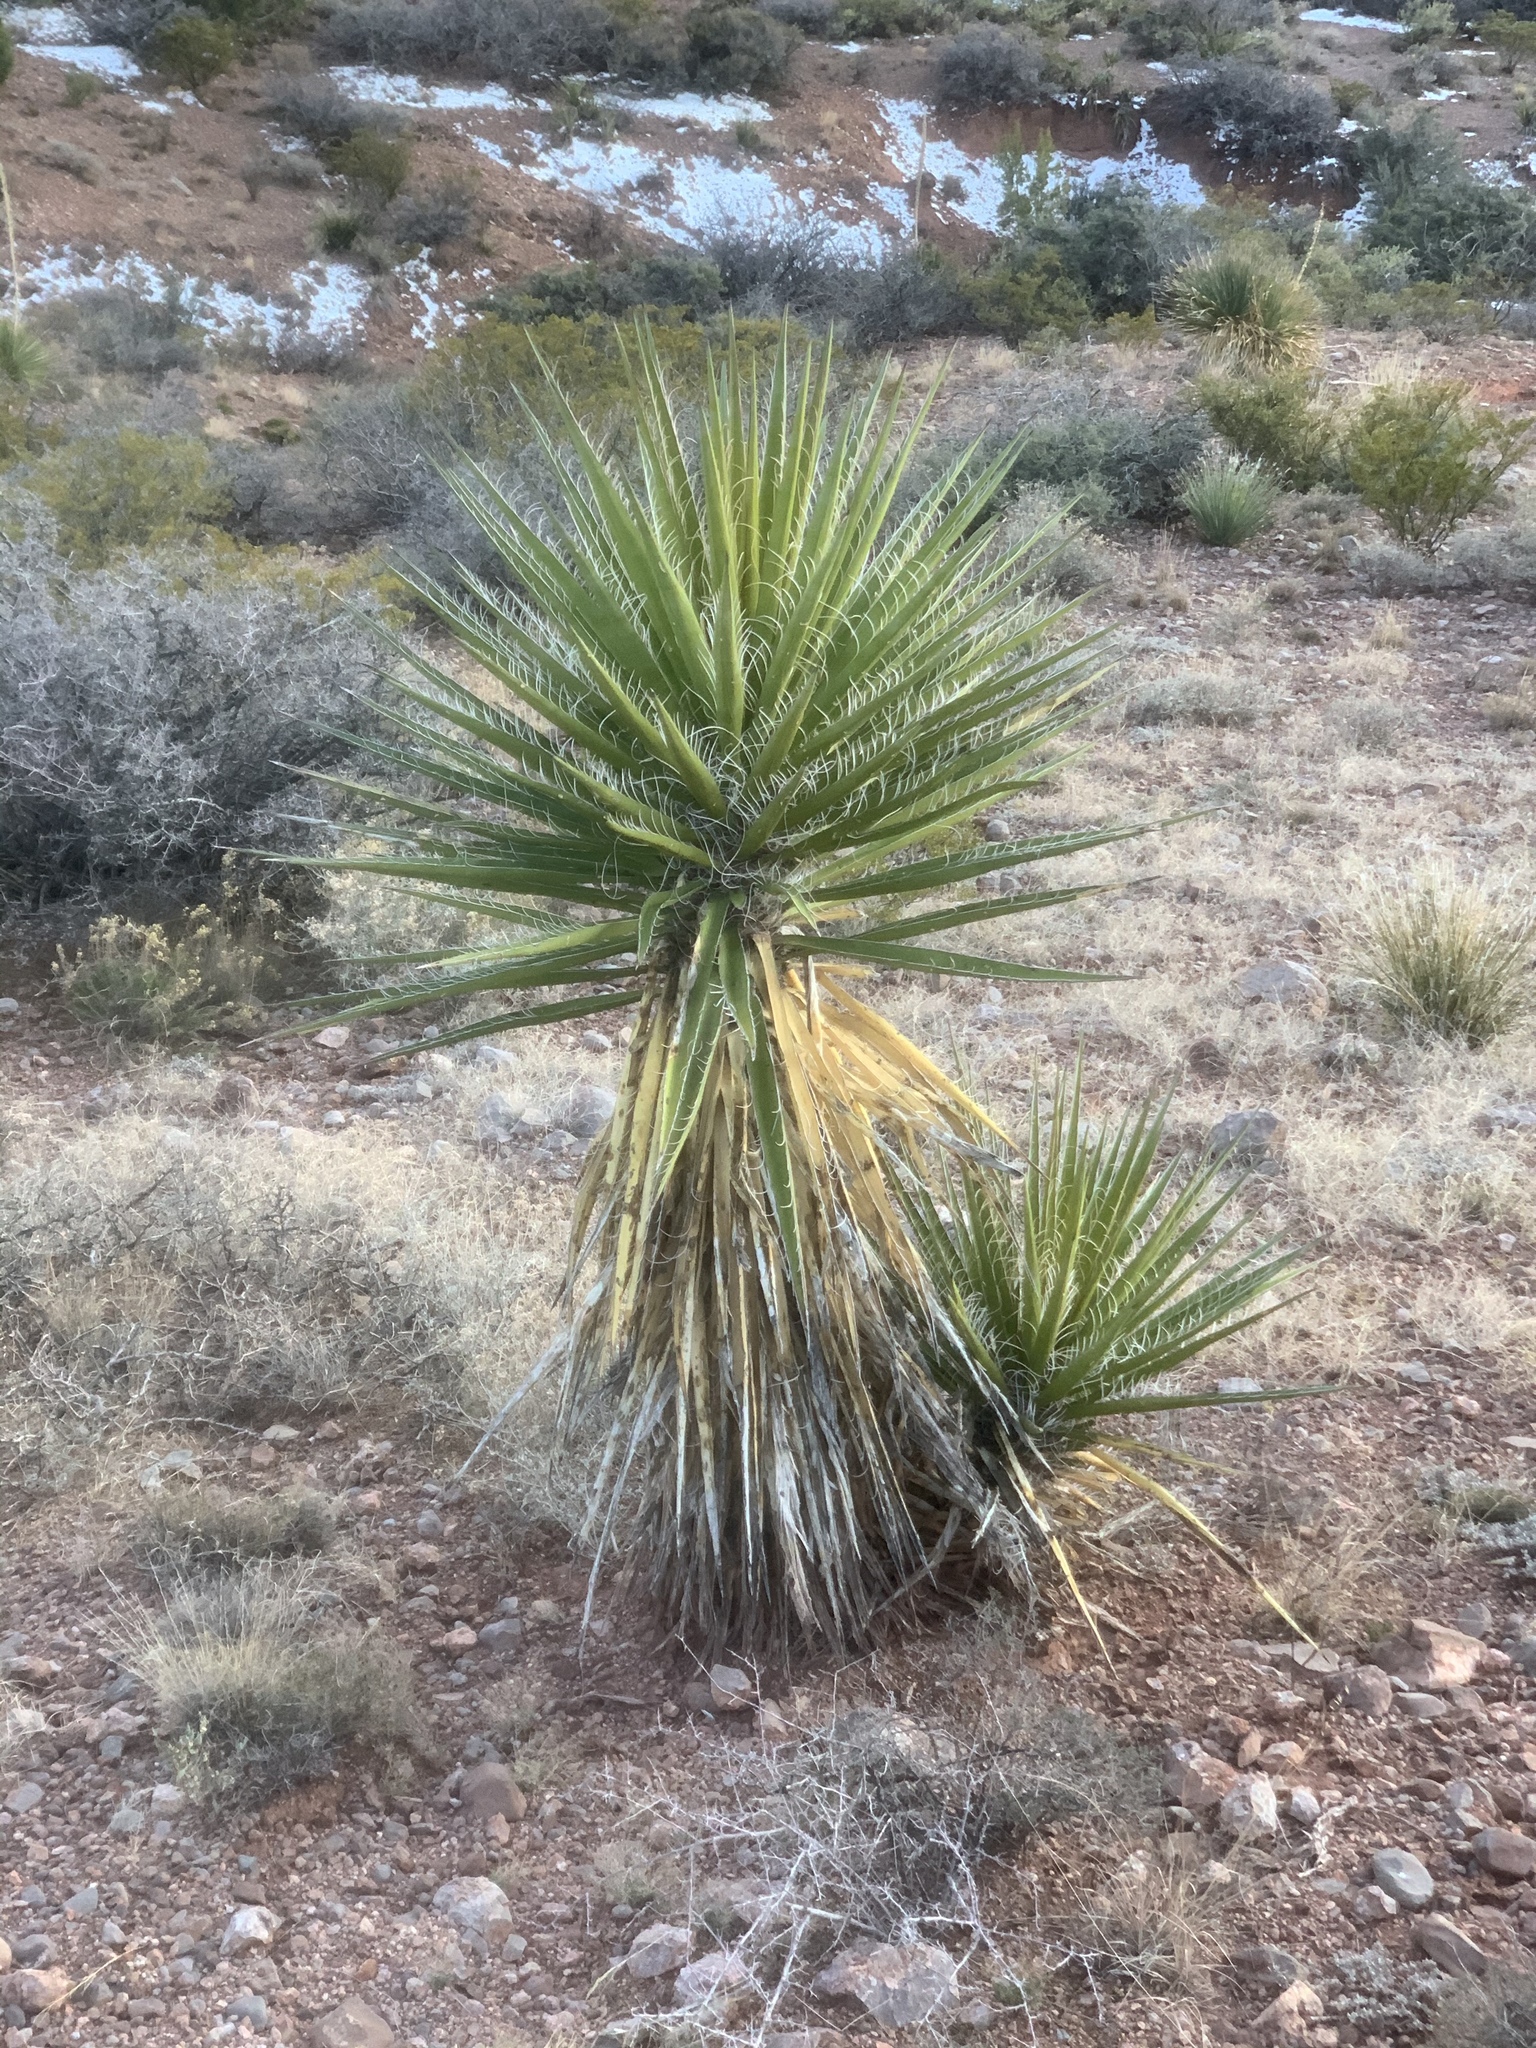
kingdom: Plantae
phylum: Tracheophyta
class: Liliopsida
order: Asparagales
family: Asparagaceae
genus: Yucca
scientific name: Yucca treculiana
